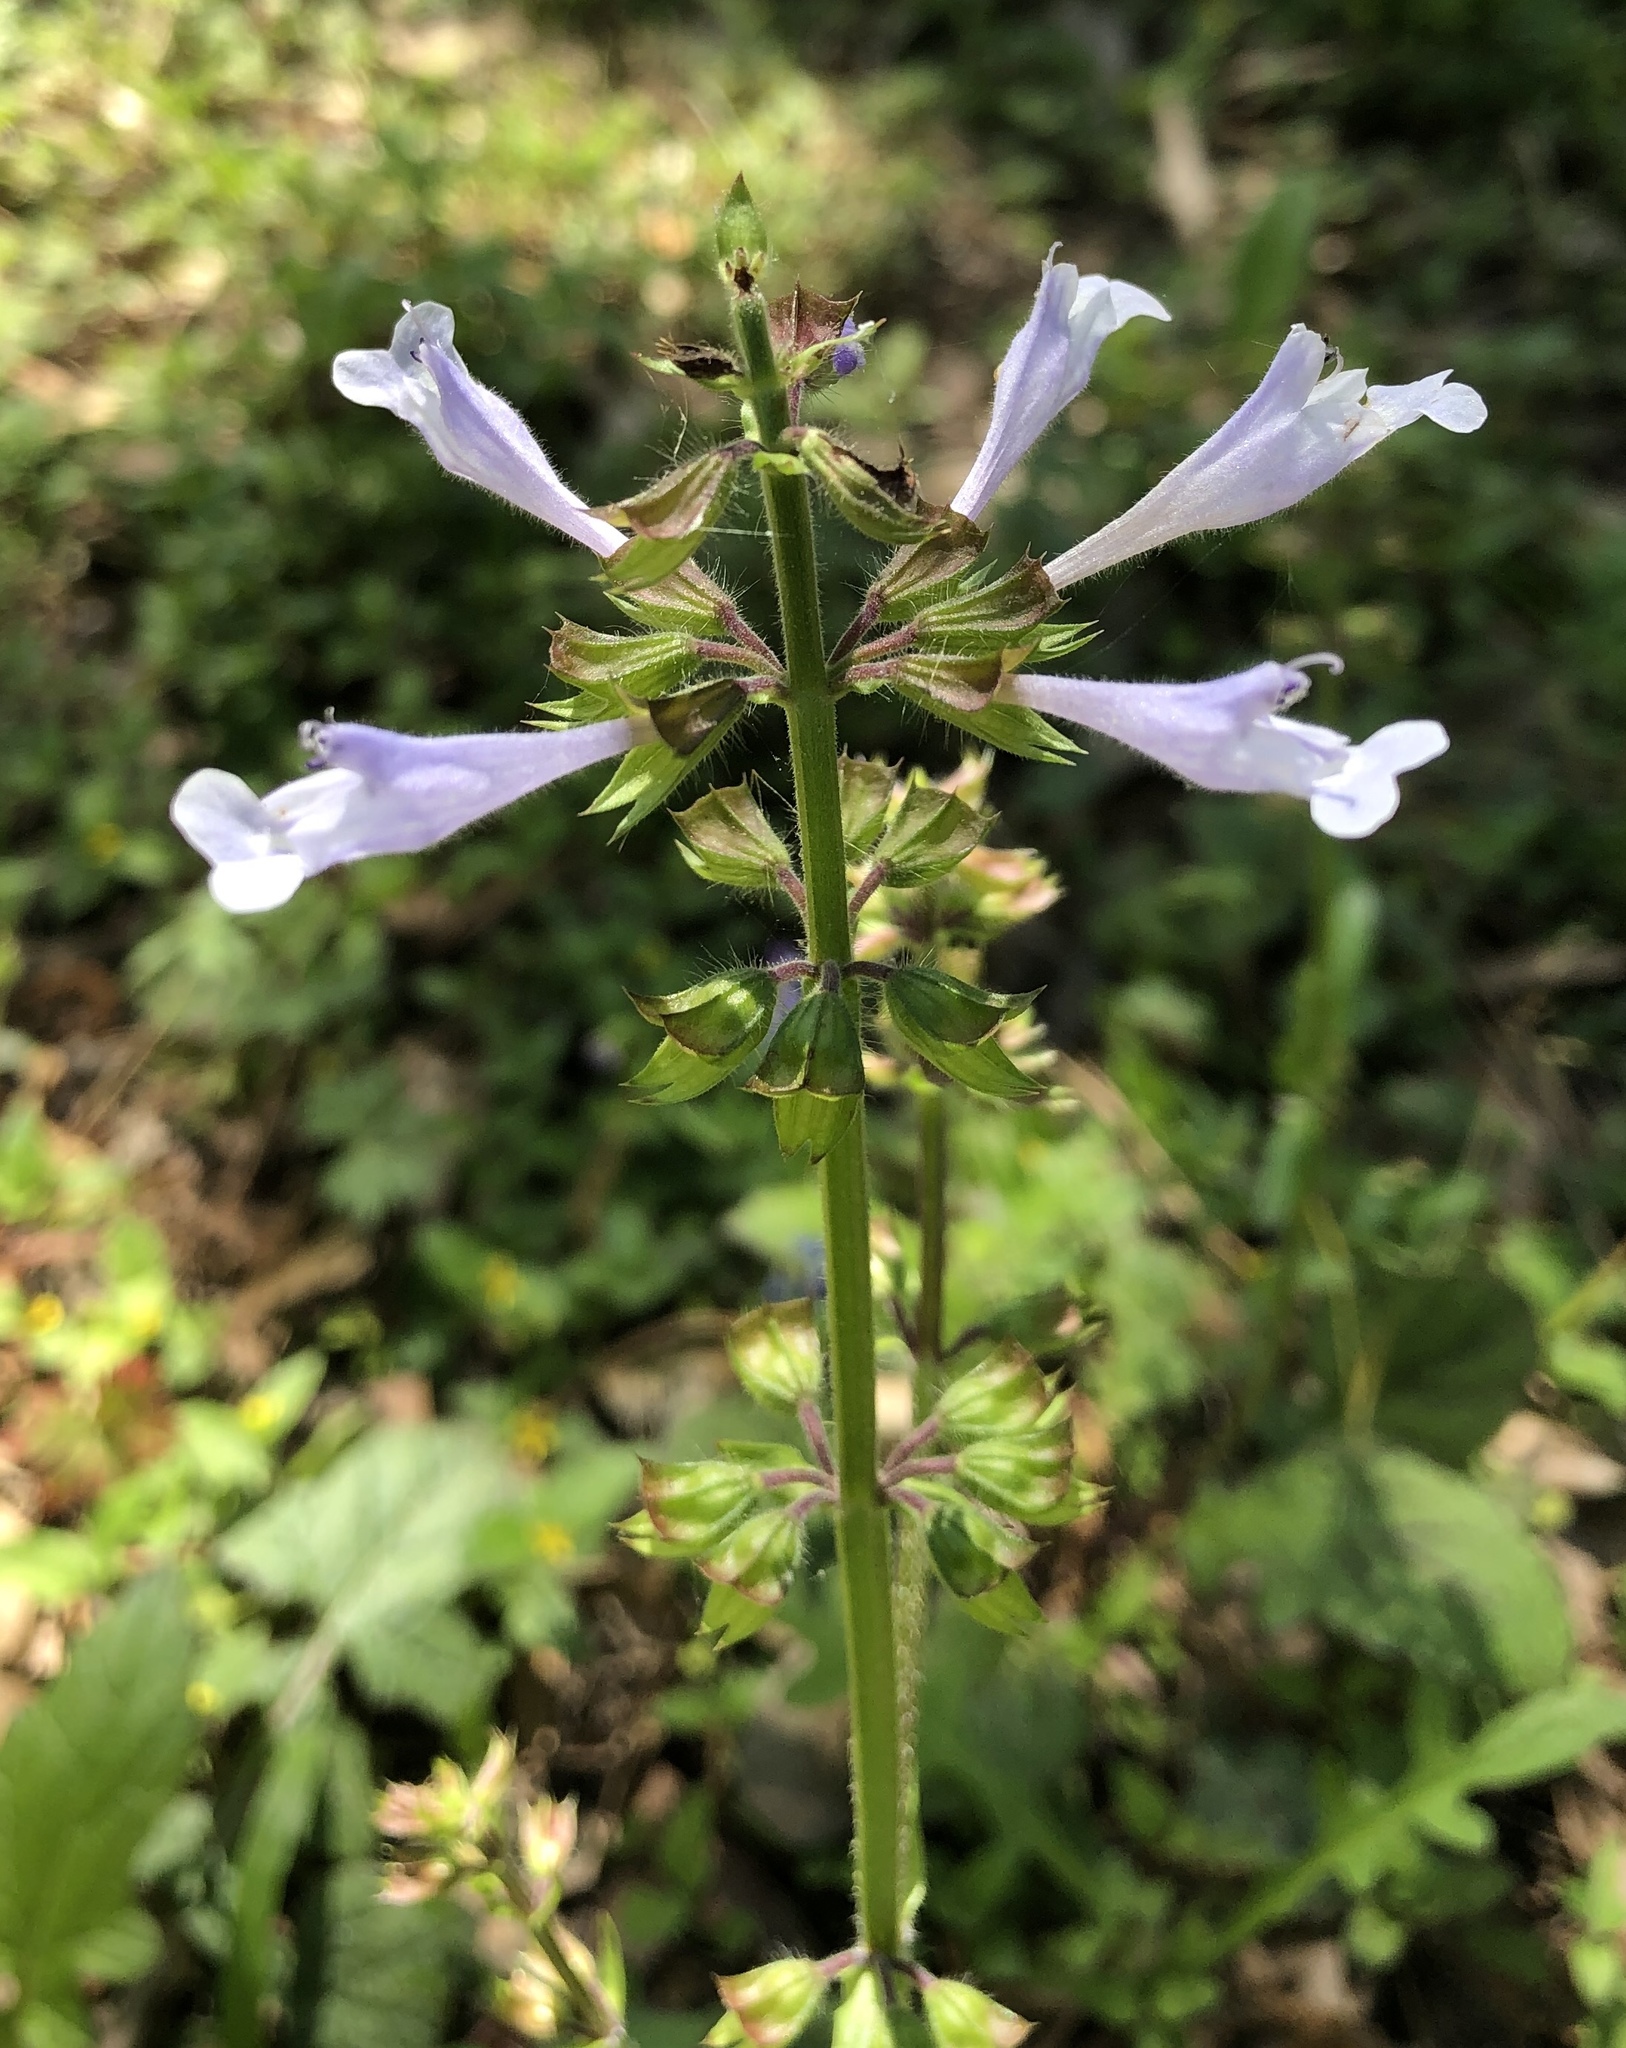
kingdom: Plantae
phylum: Tracheophyta
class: Magnoliopsida
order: Lamiales
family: Lamiaceae
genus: Salvia
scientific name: Salvia lyrata
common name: Cancerweed
